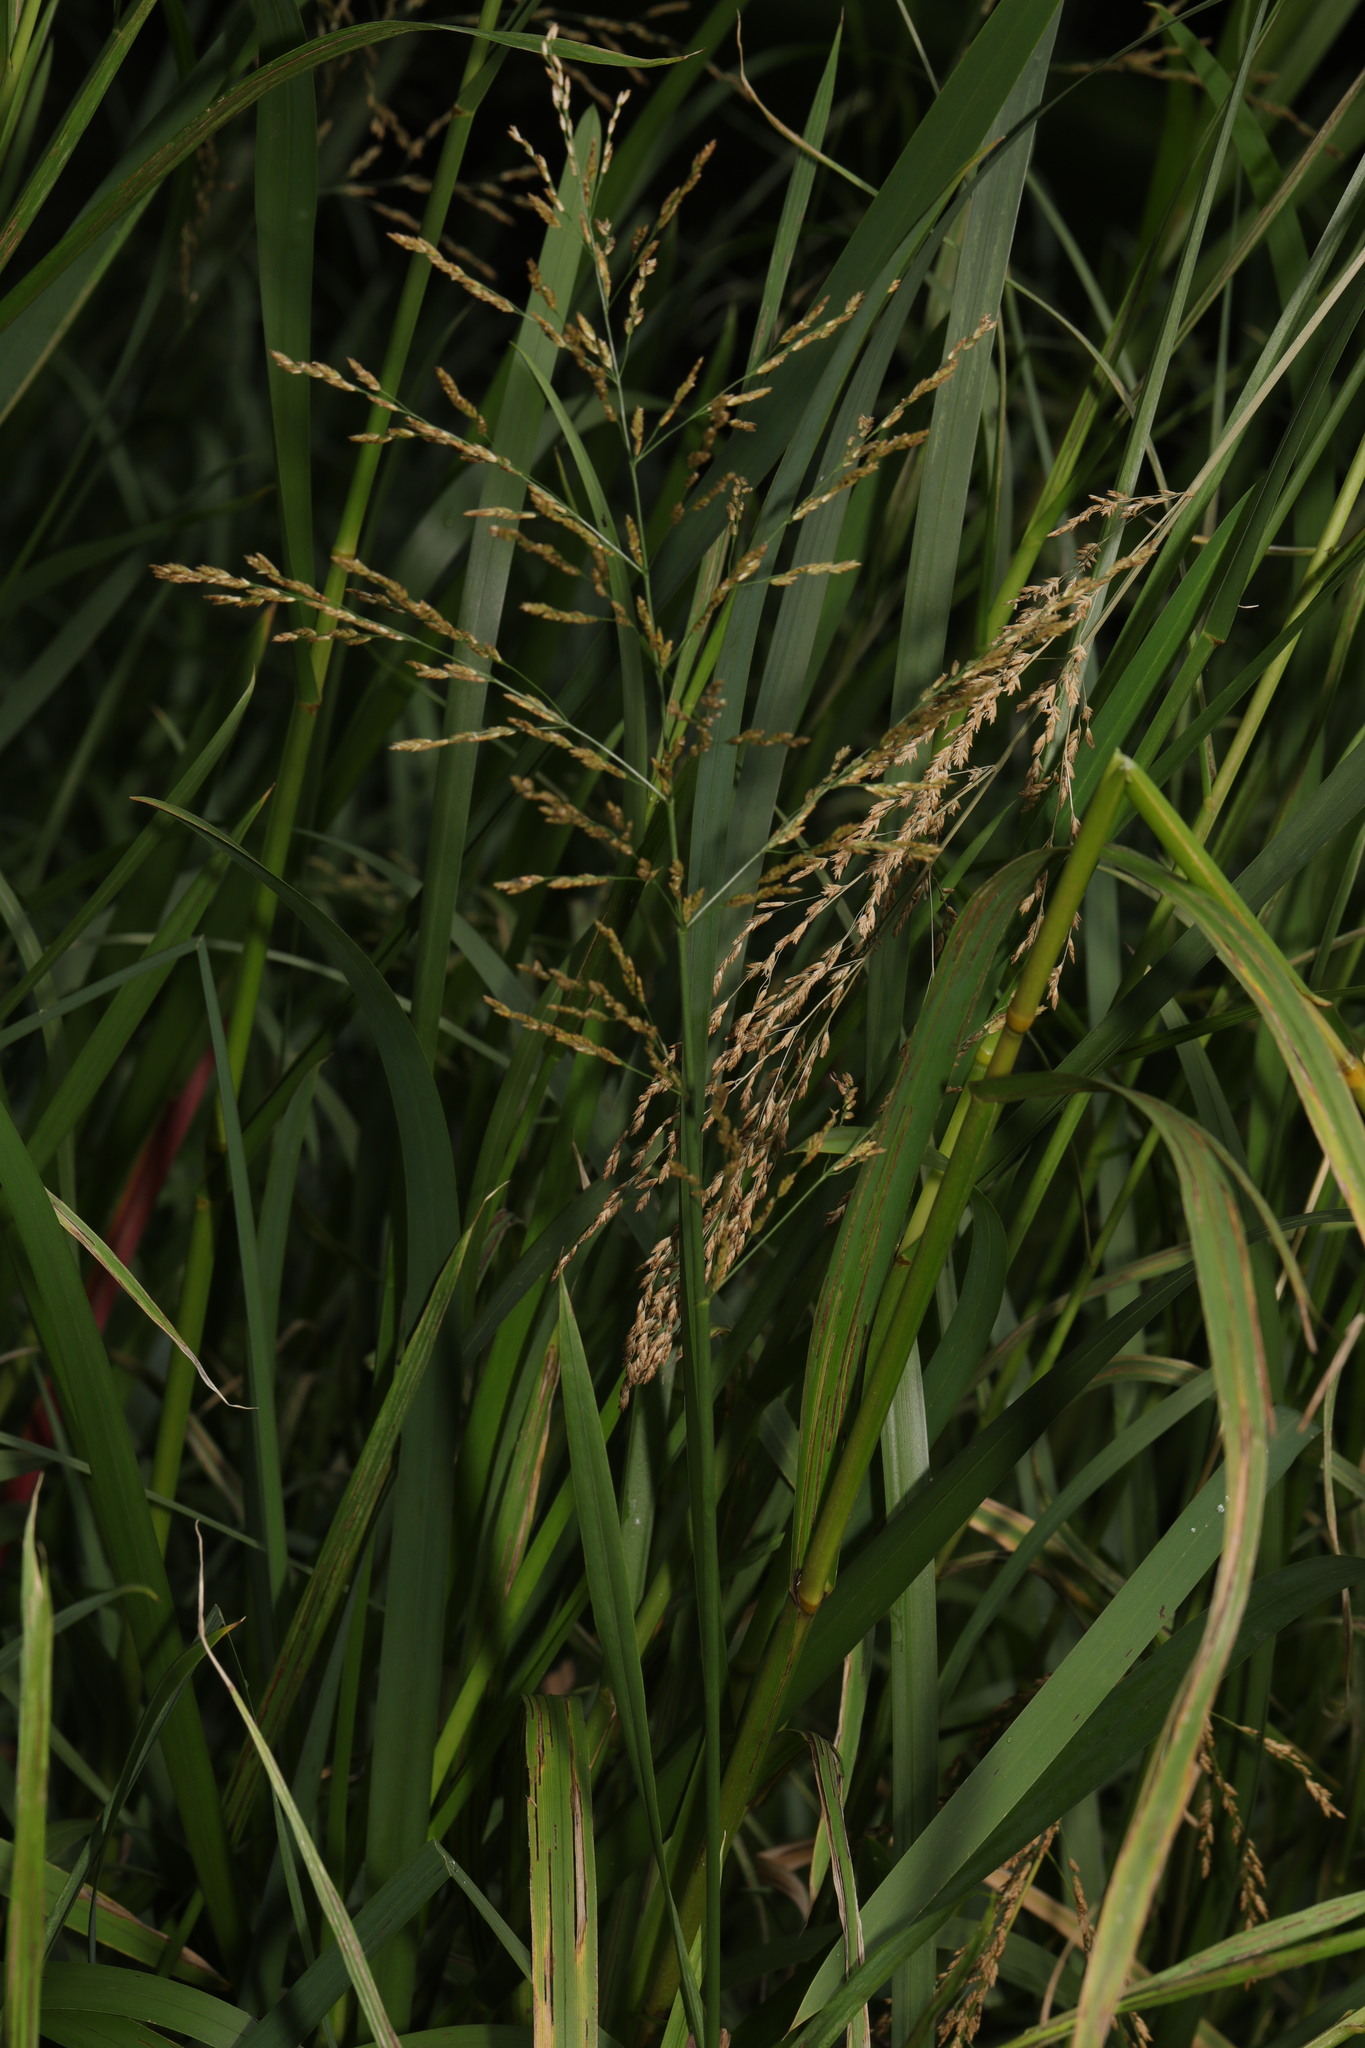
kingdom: Plantae
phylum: Tracheophyta
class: Liliopsida
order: Poales
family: Poaceae
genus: Glyceria
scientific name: Glyceria maxima
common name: Reed mannagrass
